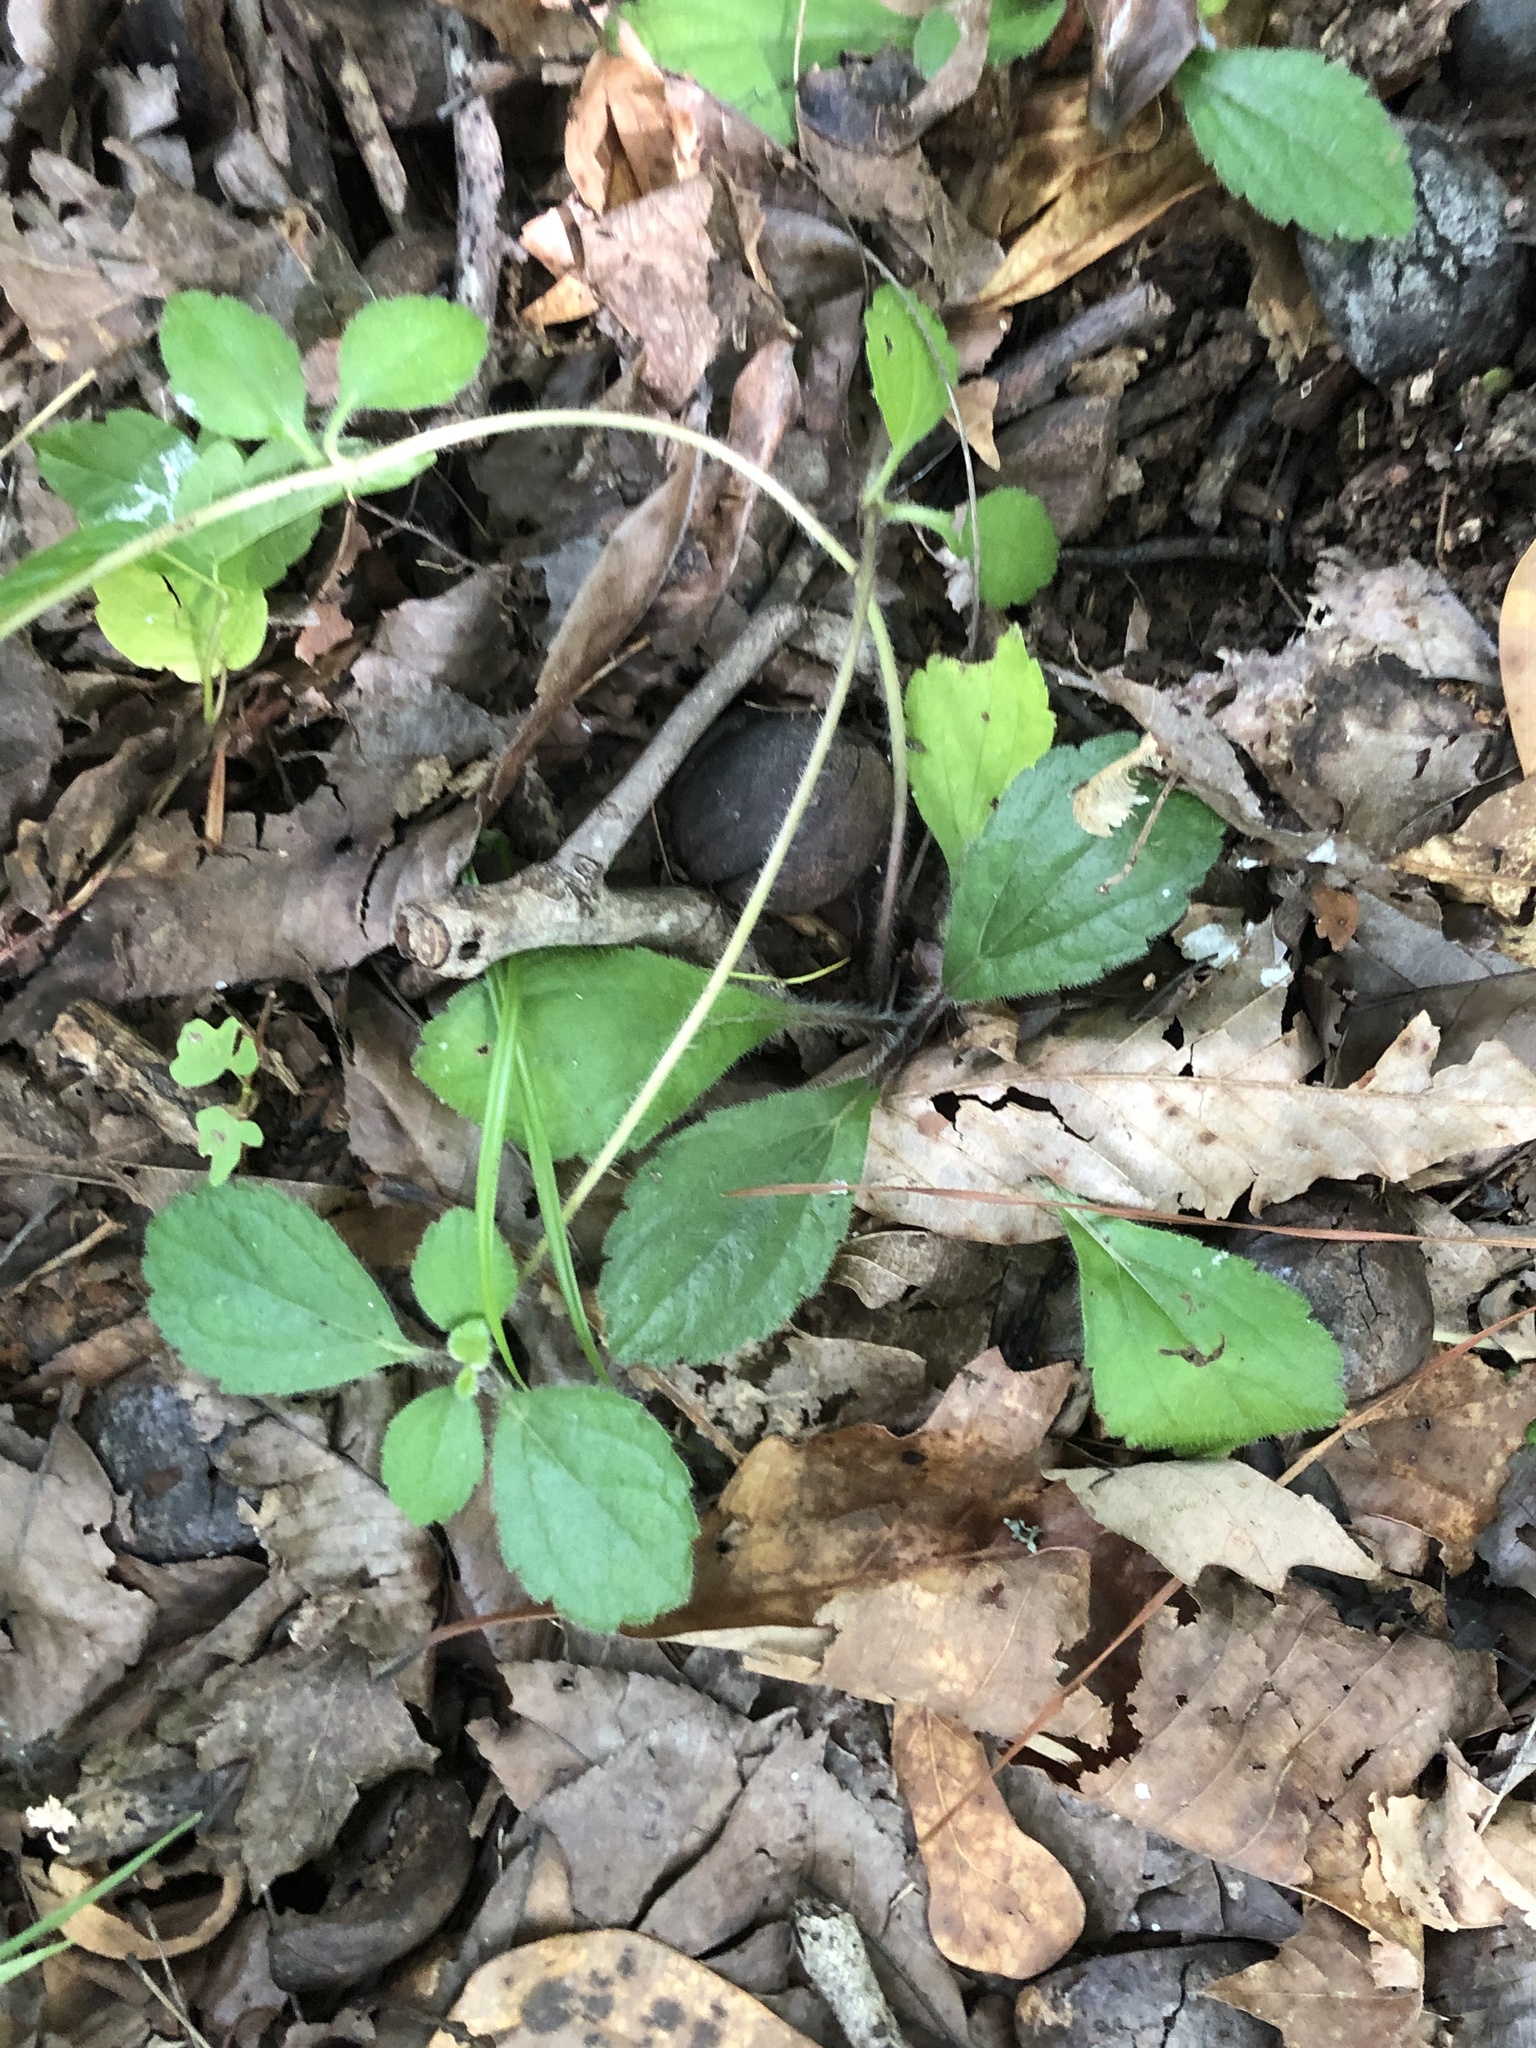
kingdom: Plantae
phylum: Tracheophyta
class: Magnoliopsida
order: Asterales
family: Asteraceae
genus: Chrysogonum
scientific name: Chrysogonum australe
